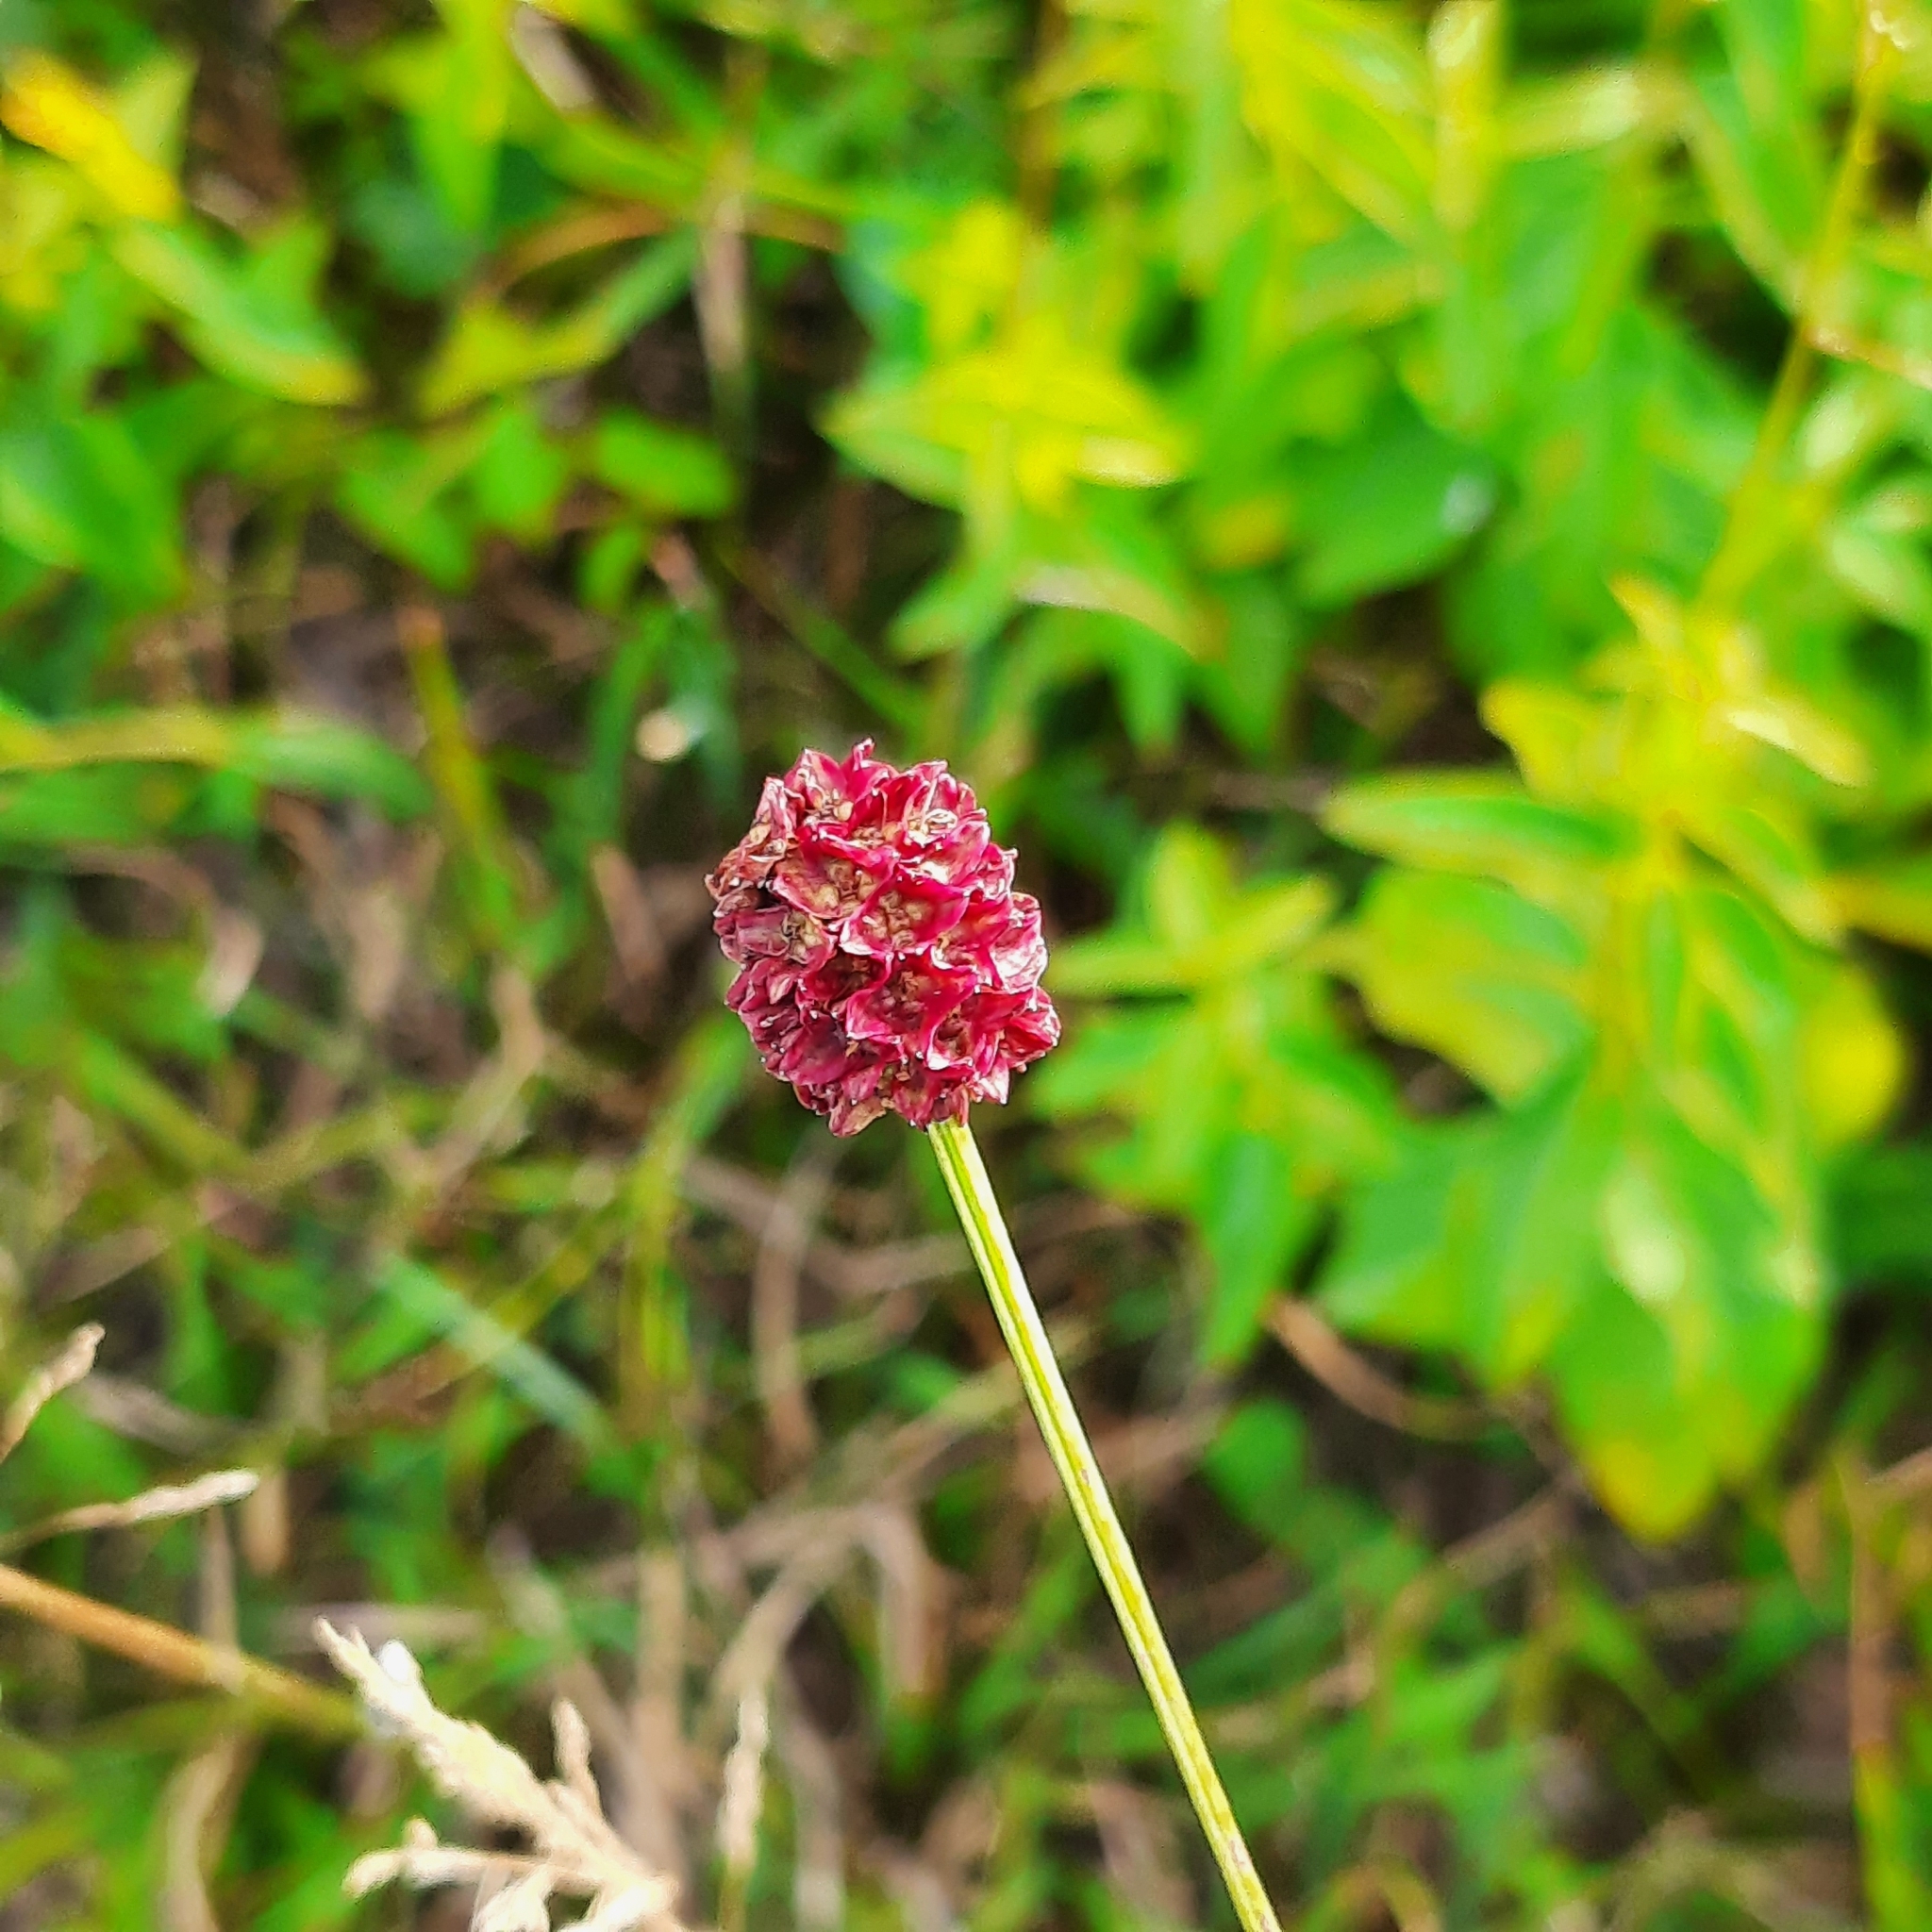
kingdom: Plantae
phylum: Tracheophyta
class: Magnoliopsida
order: Rosales
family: Rosaceae
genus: Sanguisorba
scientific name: Sanguisorba officinalis
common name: Great burnet
